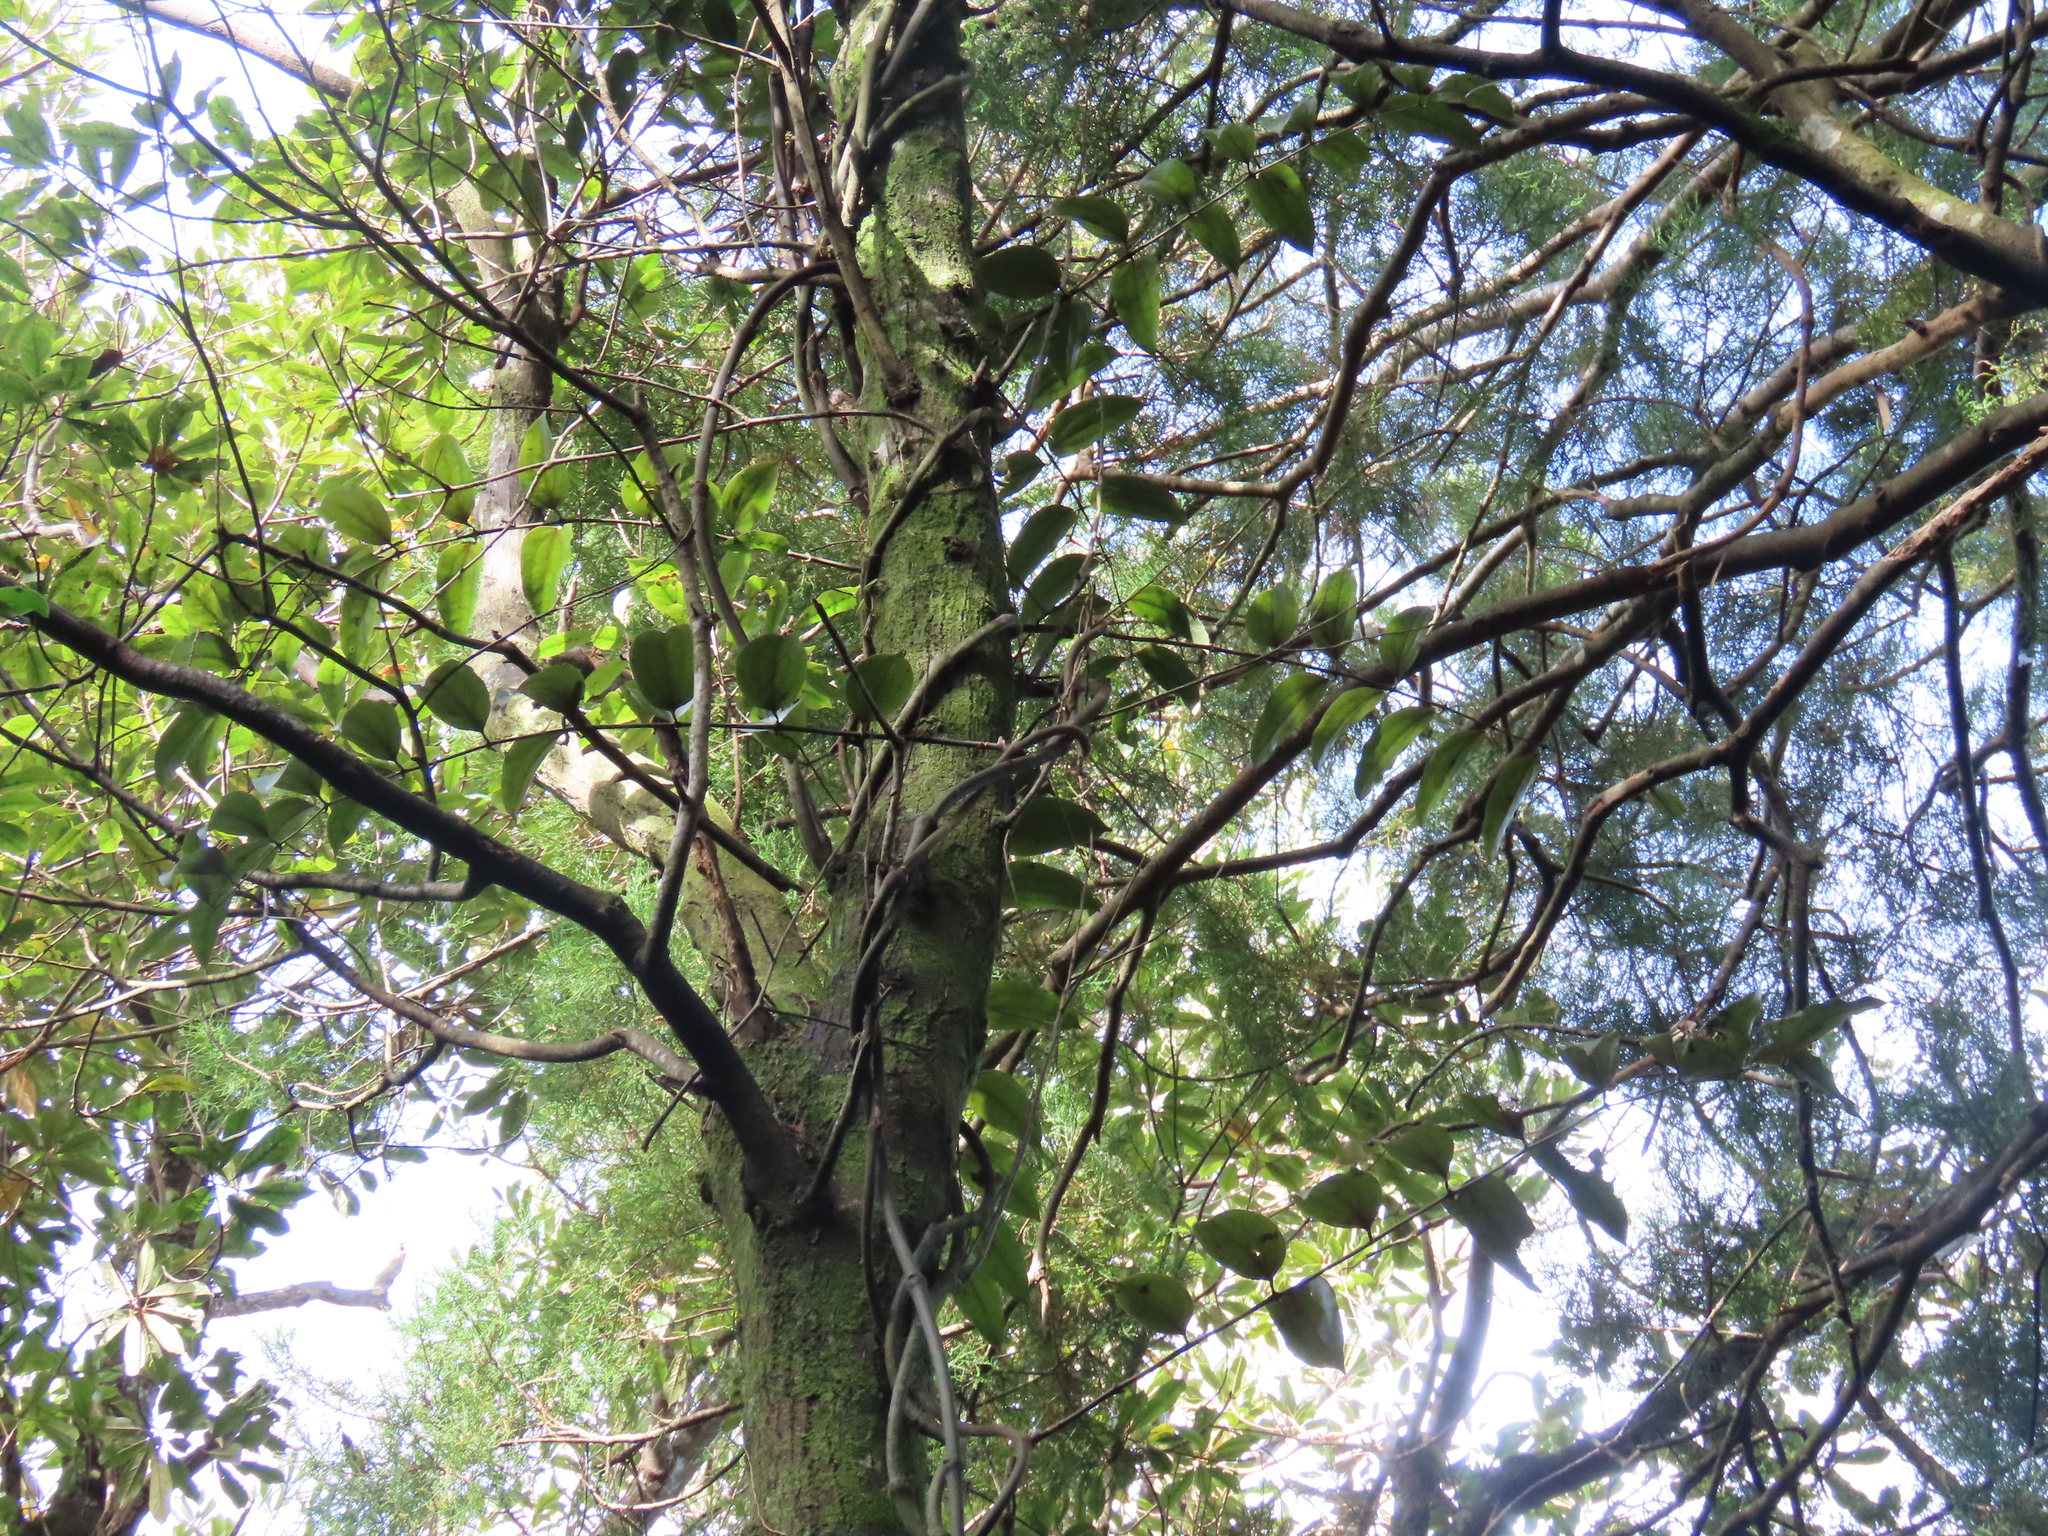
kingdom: Plantae
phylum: Tracheophyta
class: Liliopsida
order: Liliales
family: Ripogonaceae
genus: Ripogonum
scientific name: Ripogonum scandens
